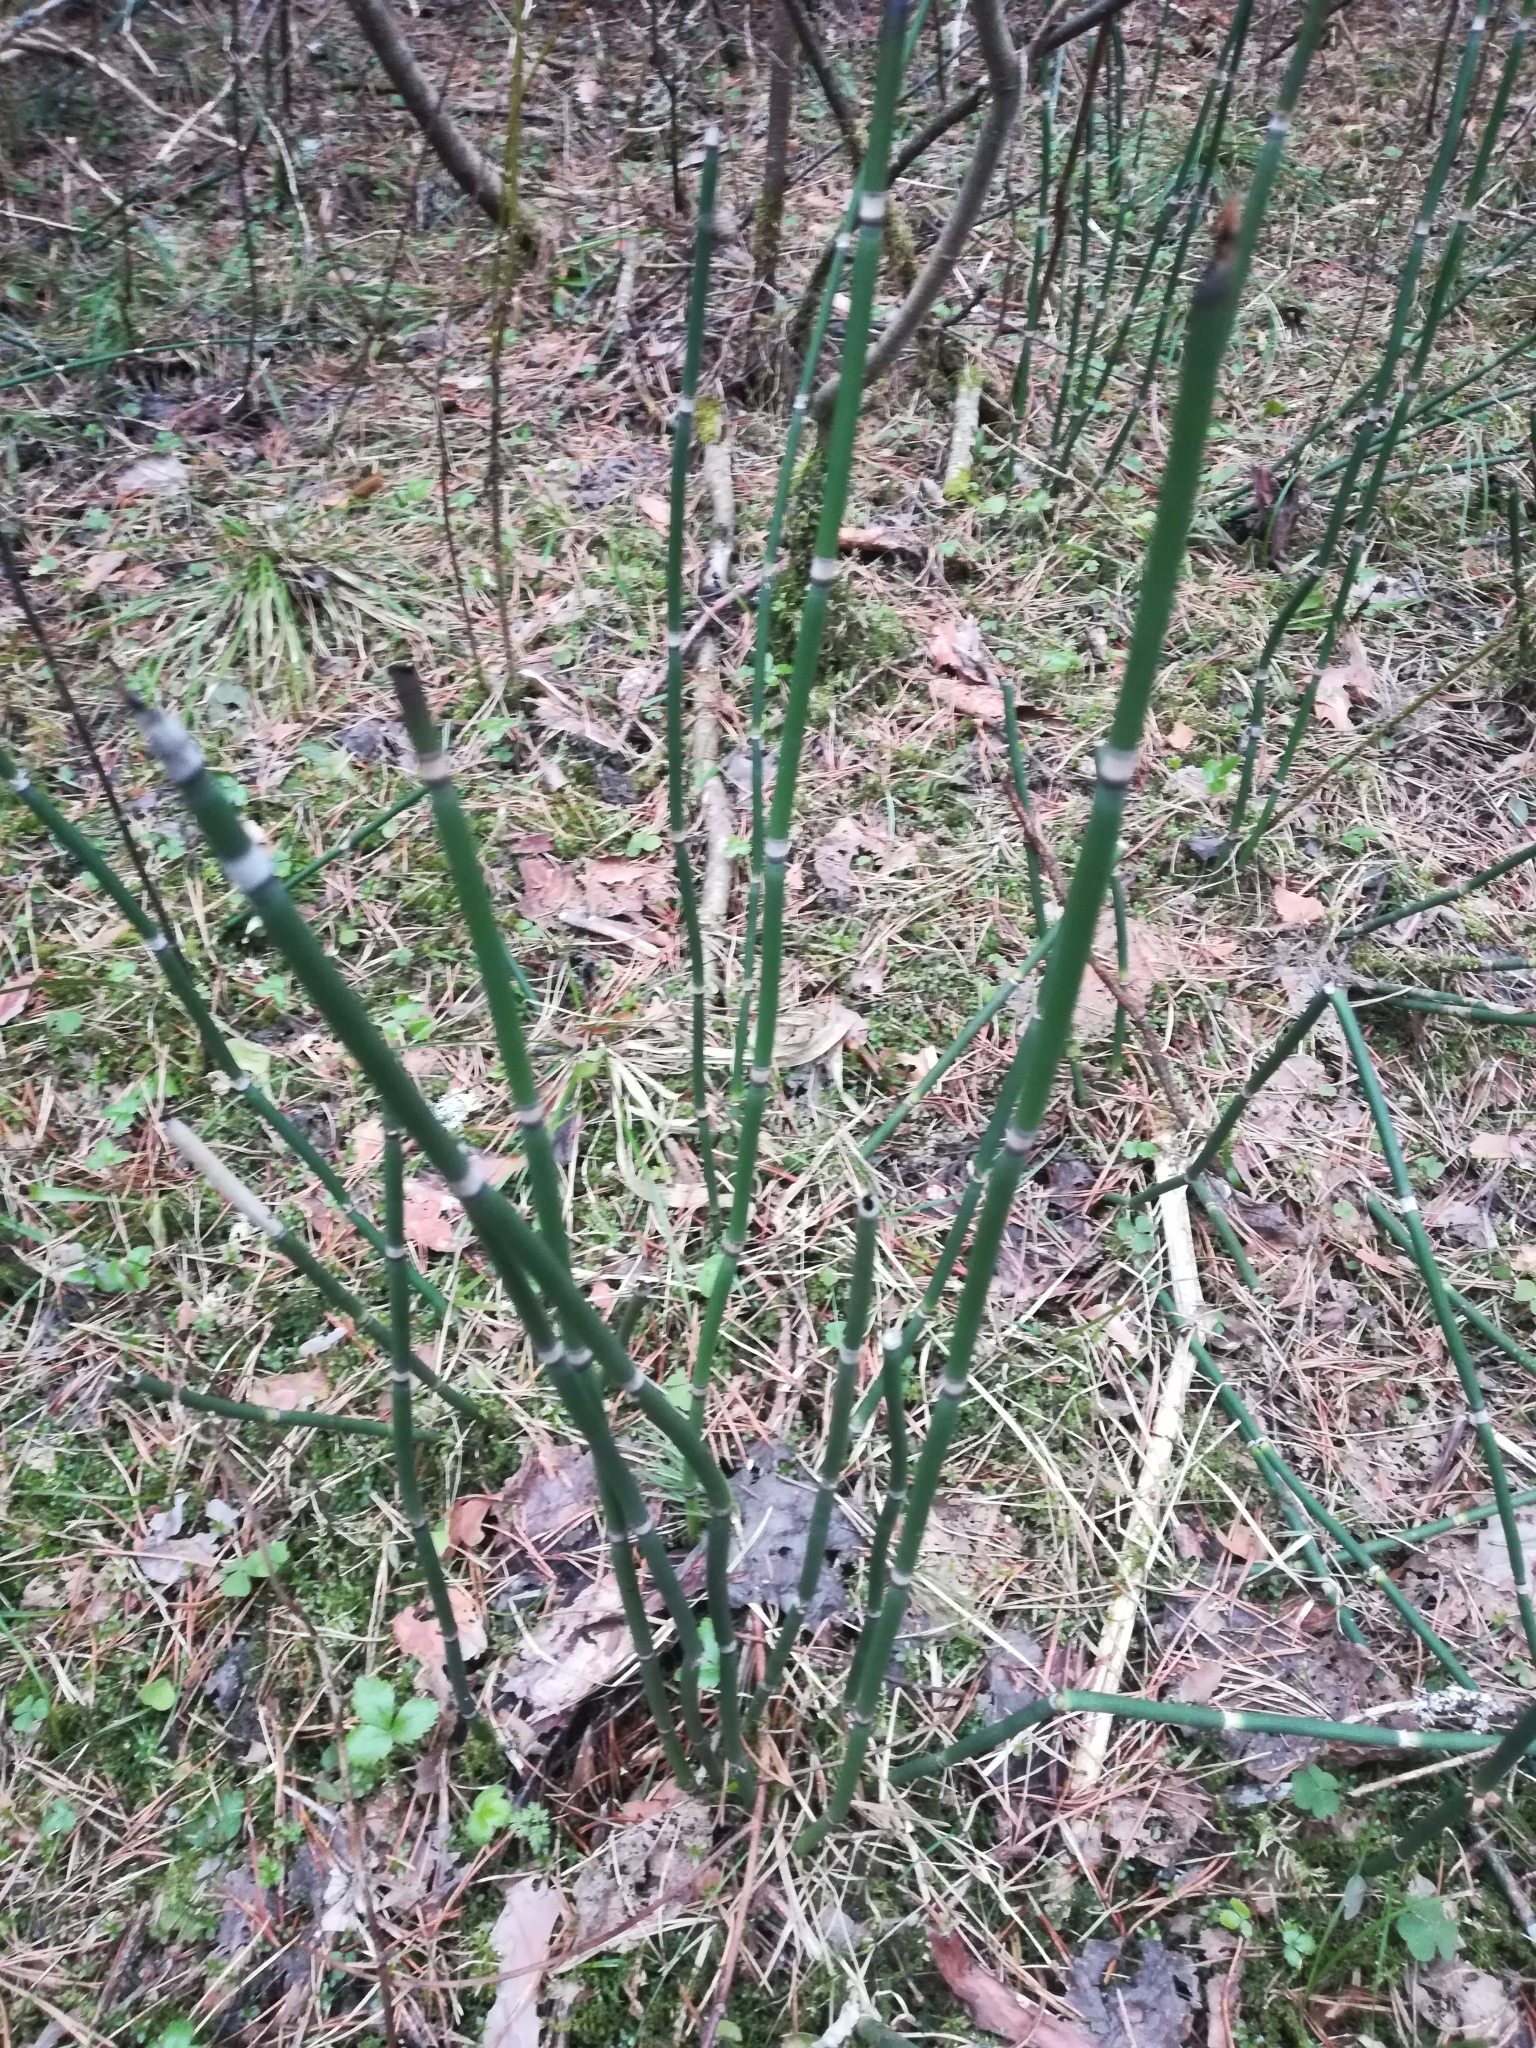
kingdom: Plantae
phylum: Tracheophyta
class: Polypodiopsida
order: Equisetales
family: Equisetaceae
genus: Equisetum
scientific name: Equisetum hyemale
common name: Rough horsetail
